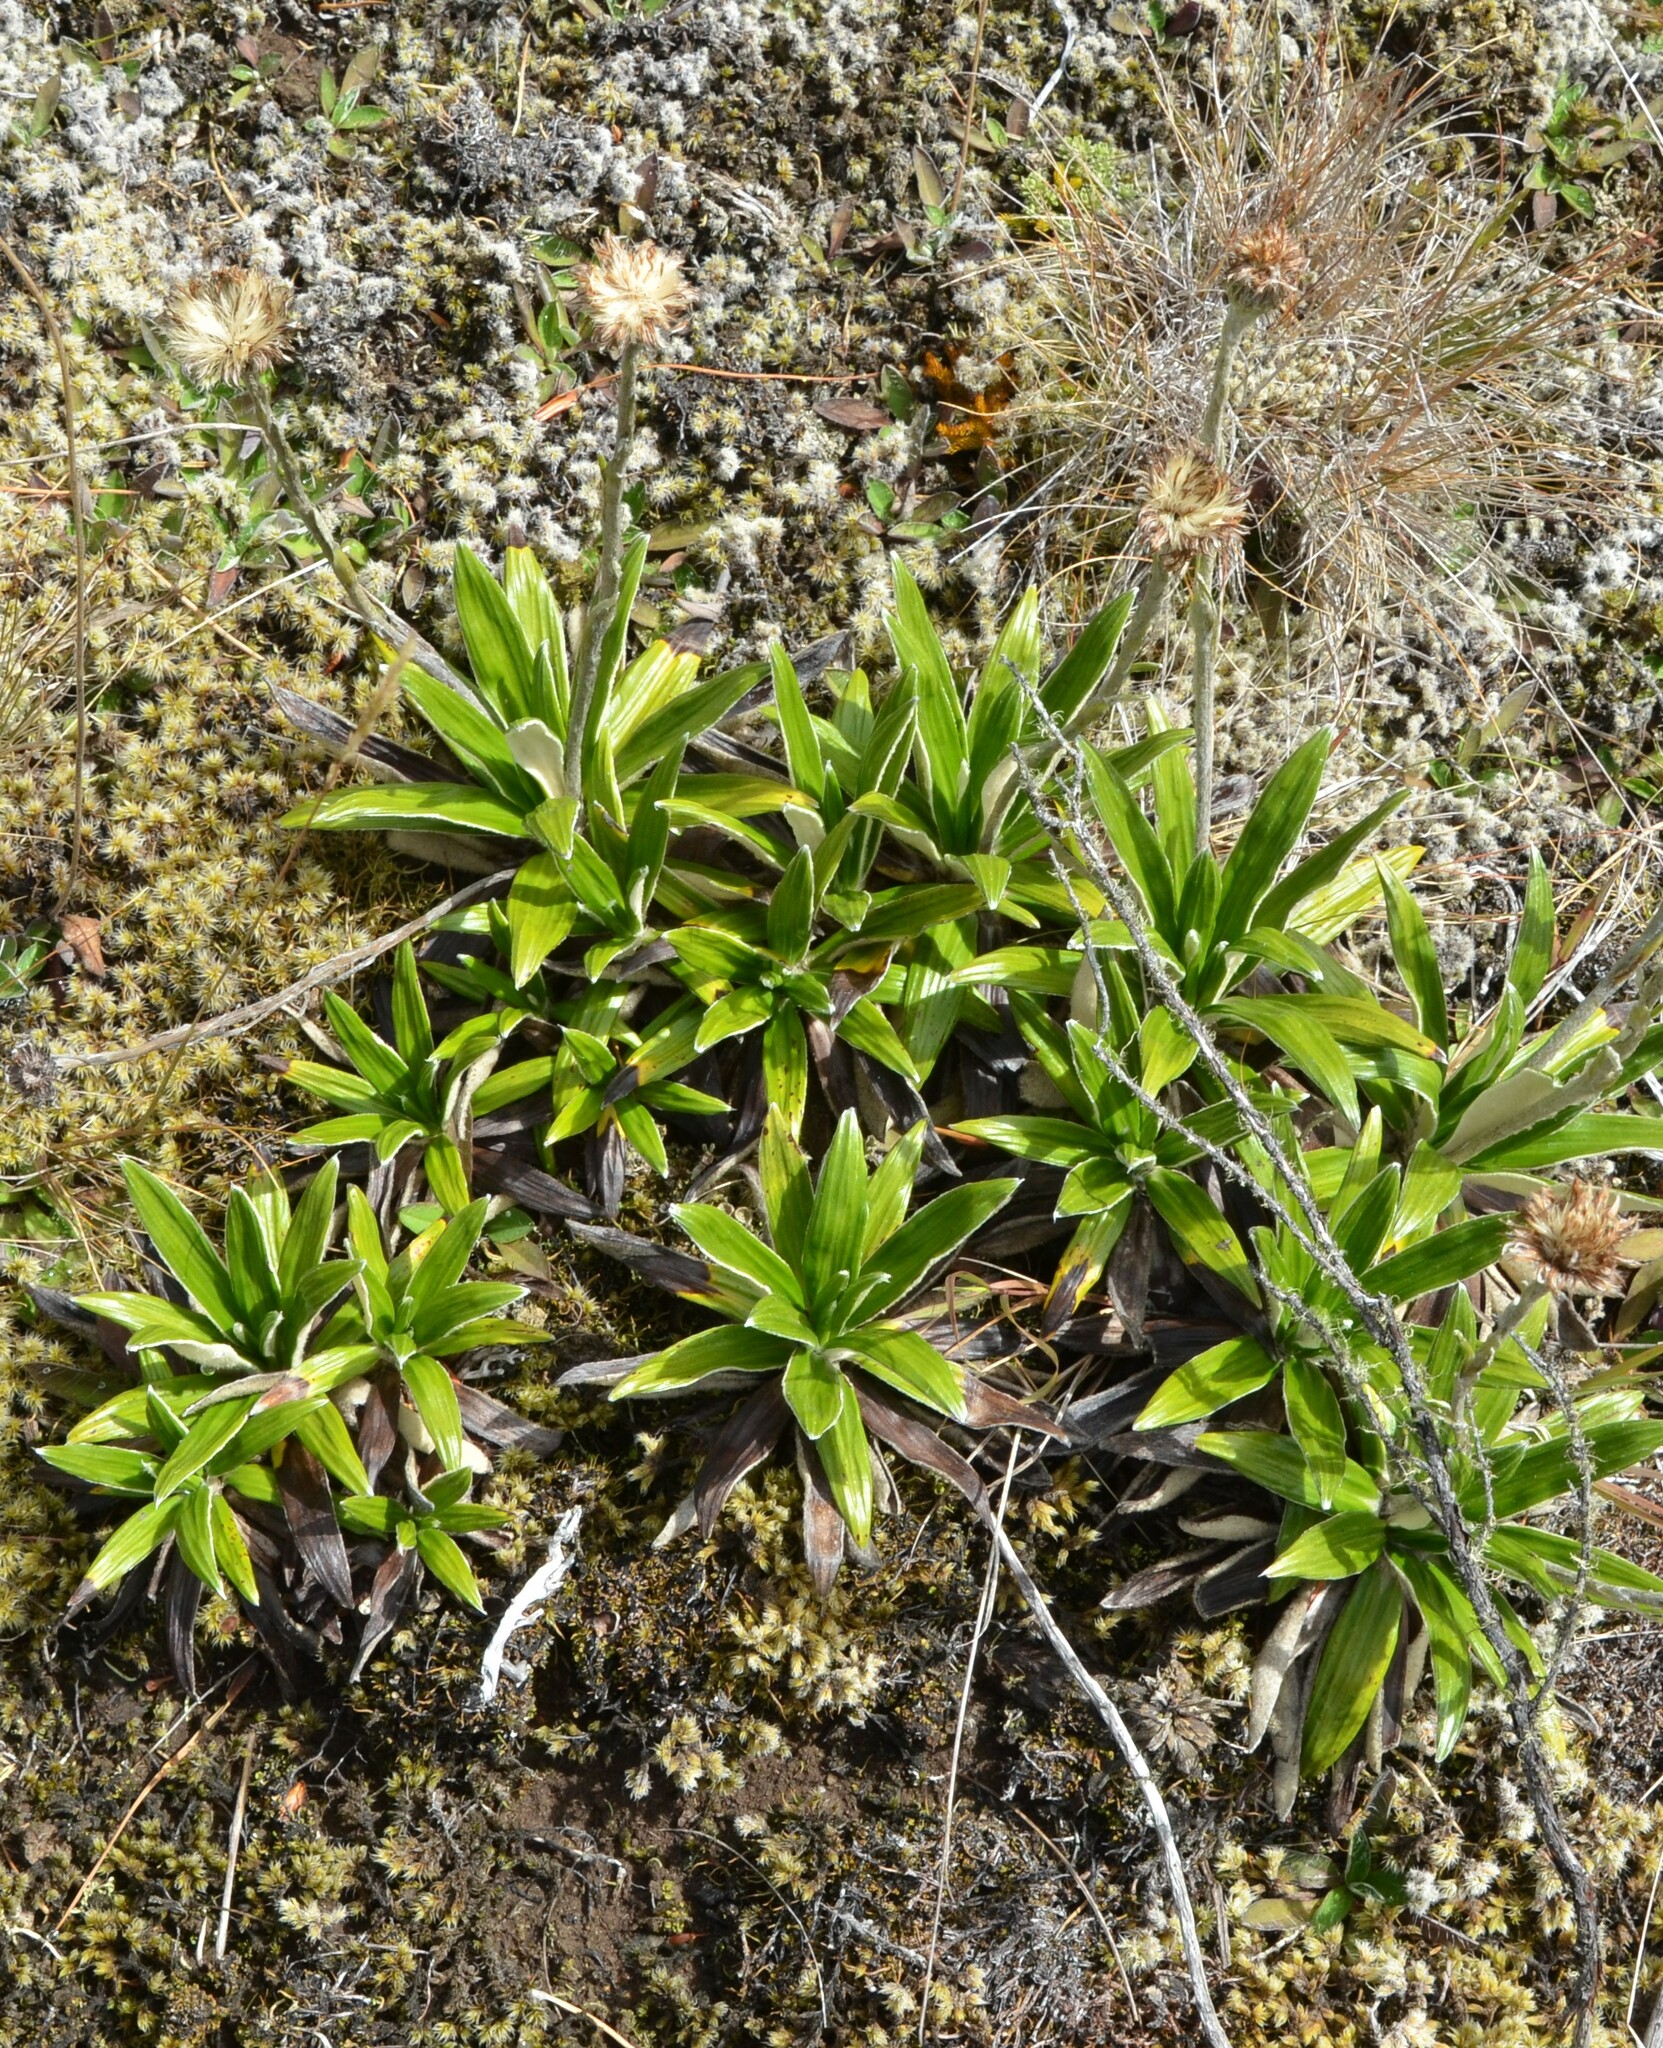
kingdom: Plantae
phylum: Tracheophyta
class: Magnoliopsida
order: Asterales
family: Asteraceae
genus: Celmisia
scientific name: Celmisia spectabilis
